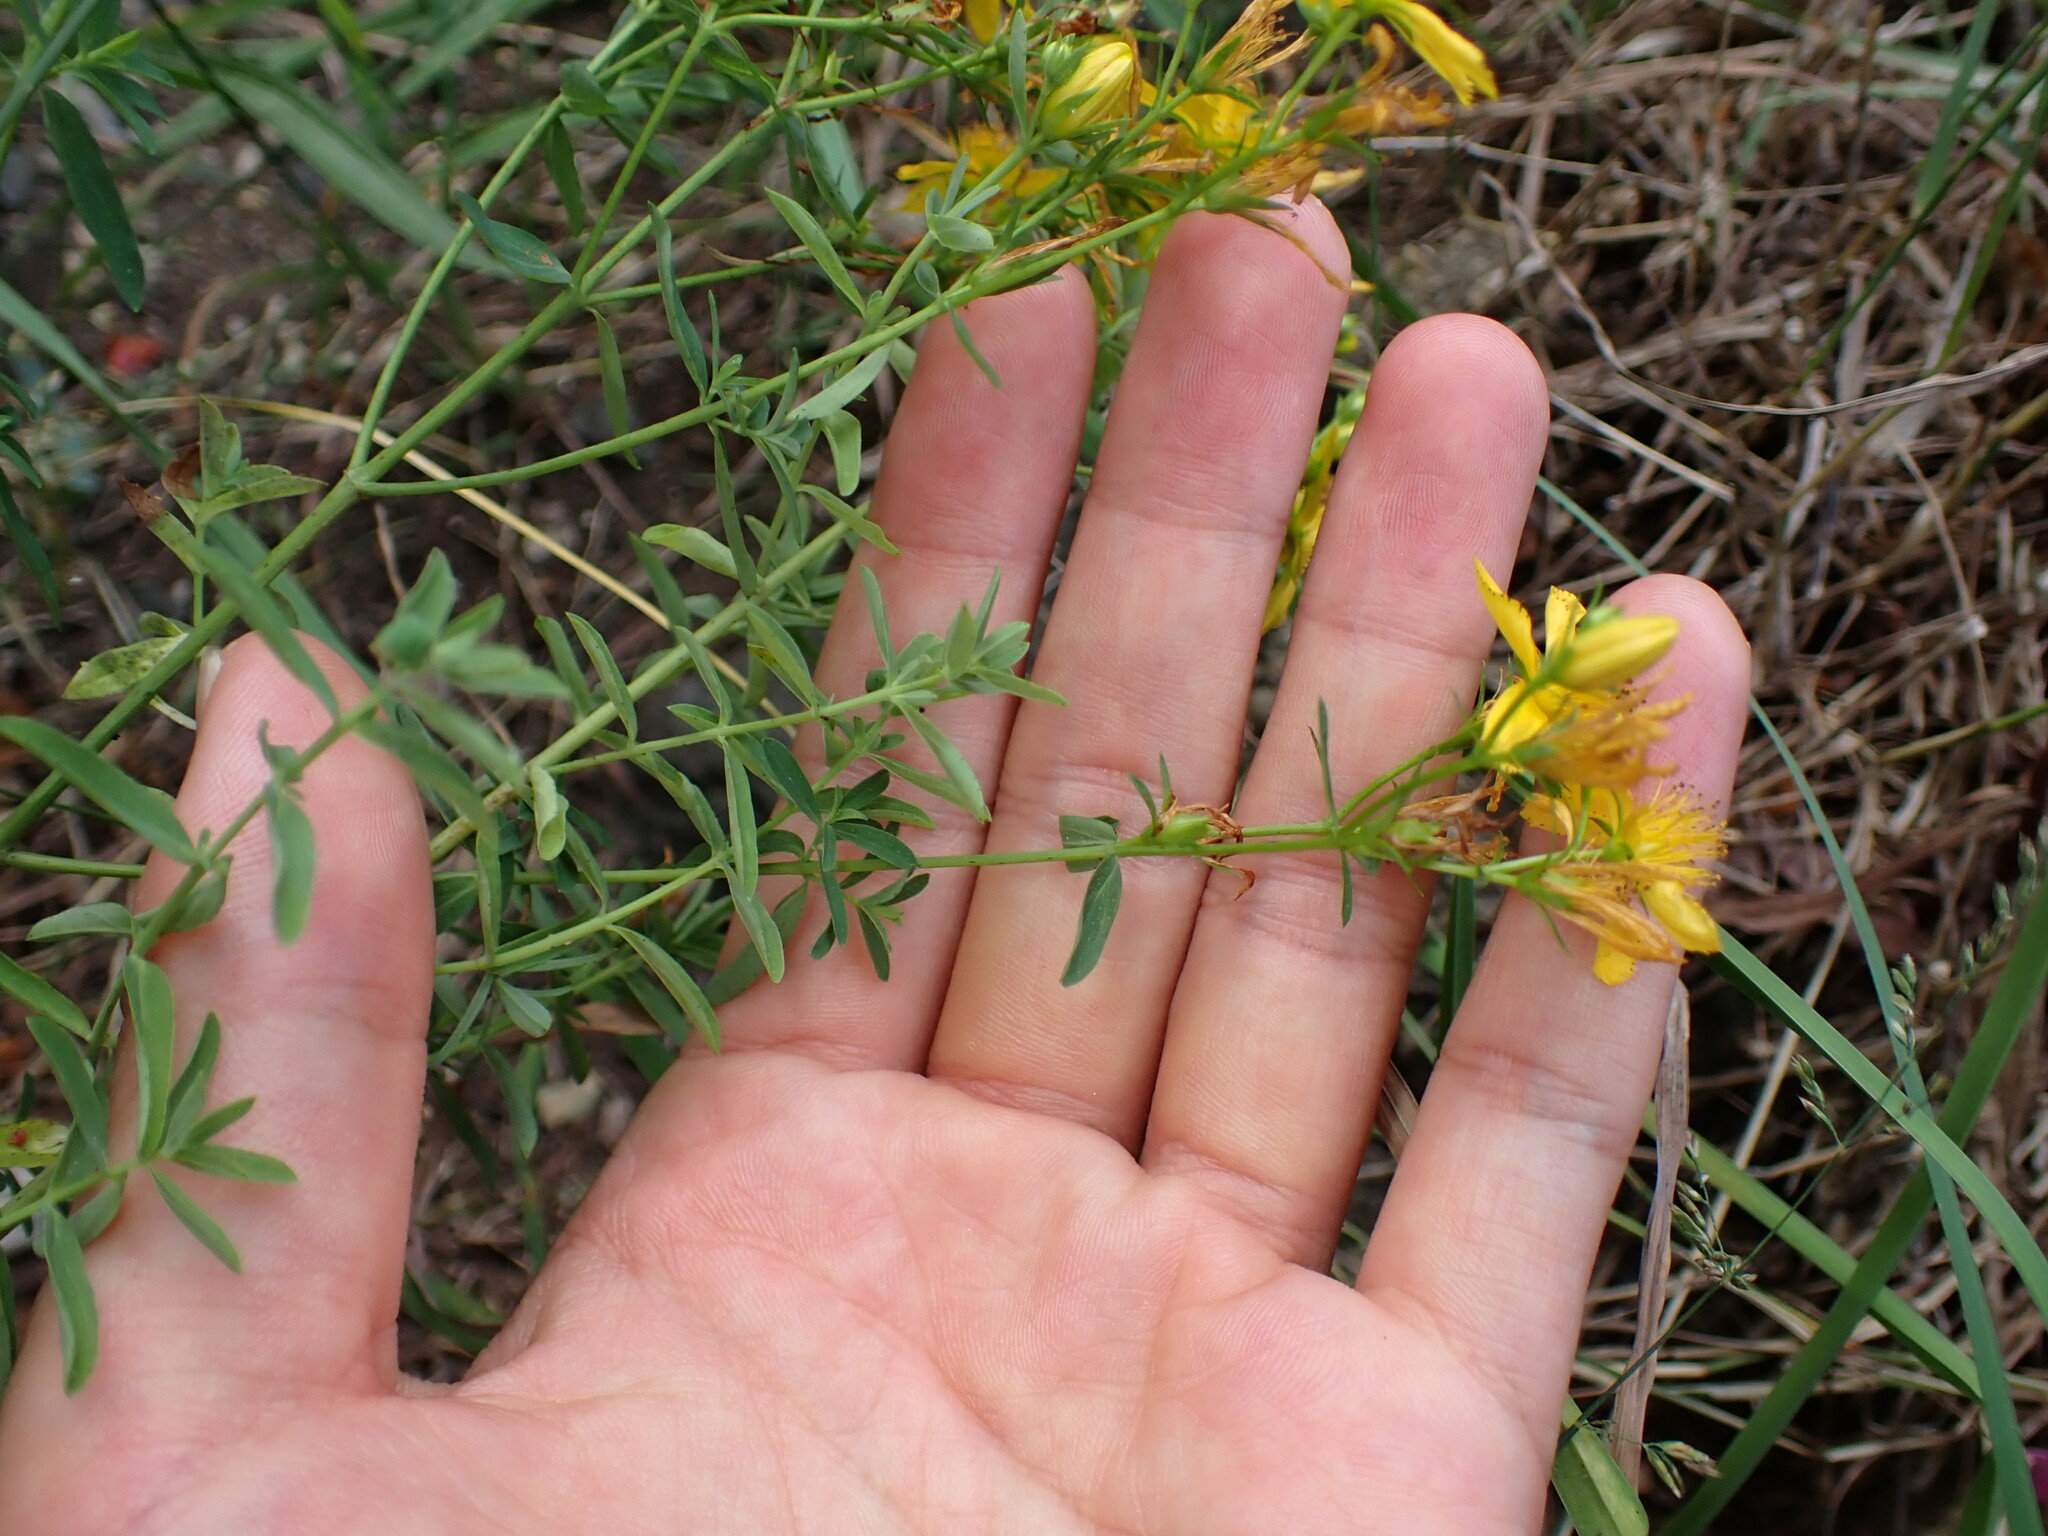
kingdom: Plantae
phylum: Tracheophyta
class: Magnoliopsida
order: Malpighiales
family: Hypericaceae
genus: Hypericum
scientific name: Hypericum perforatum
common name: Common st. johnswort
